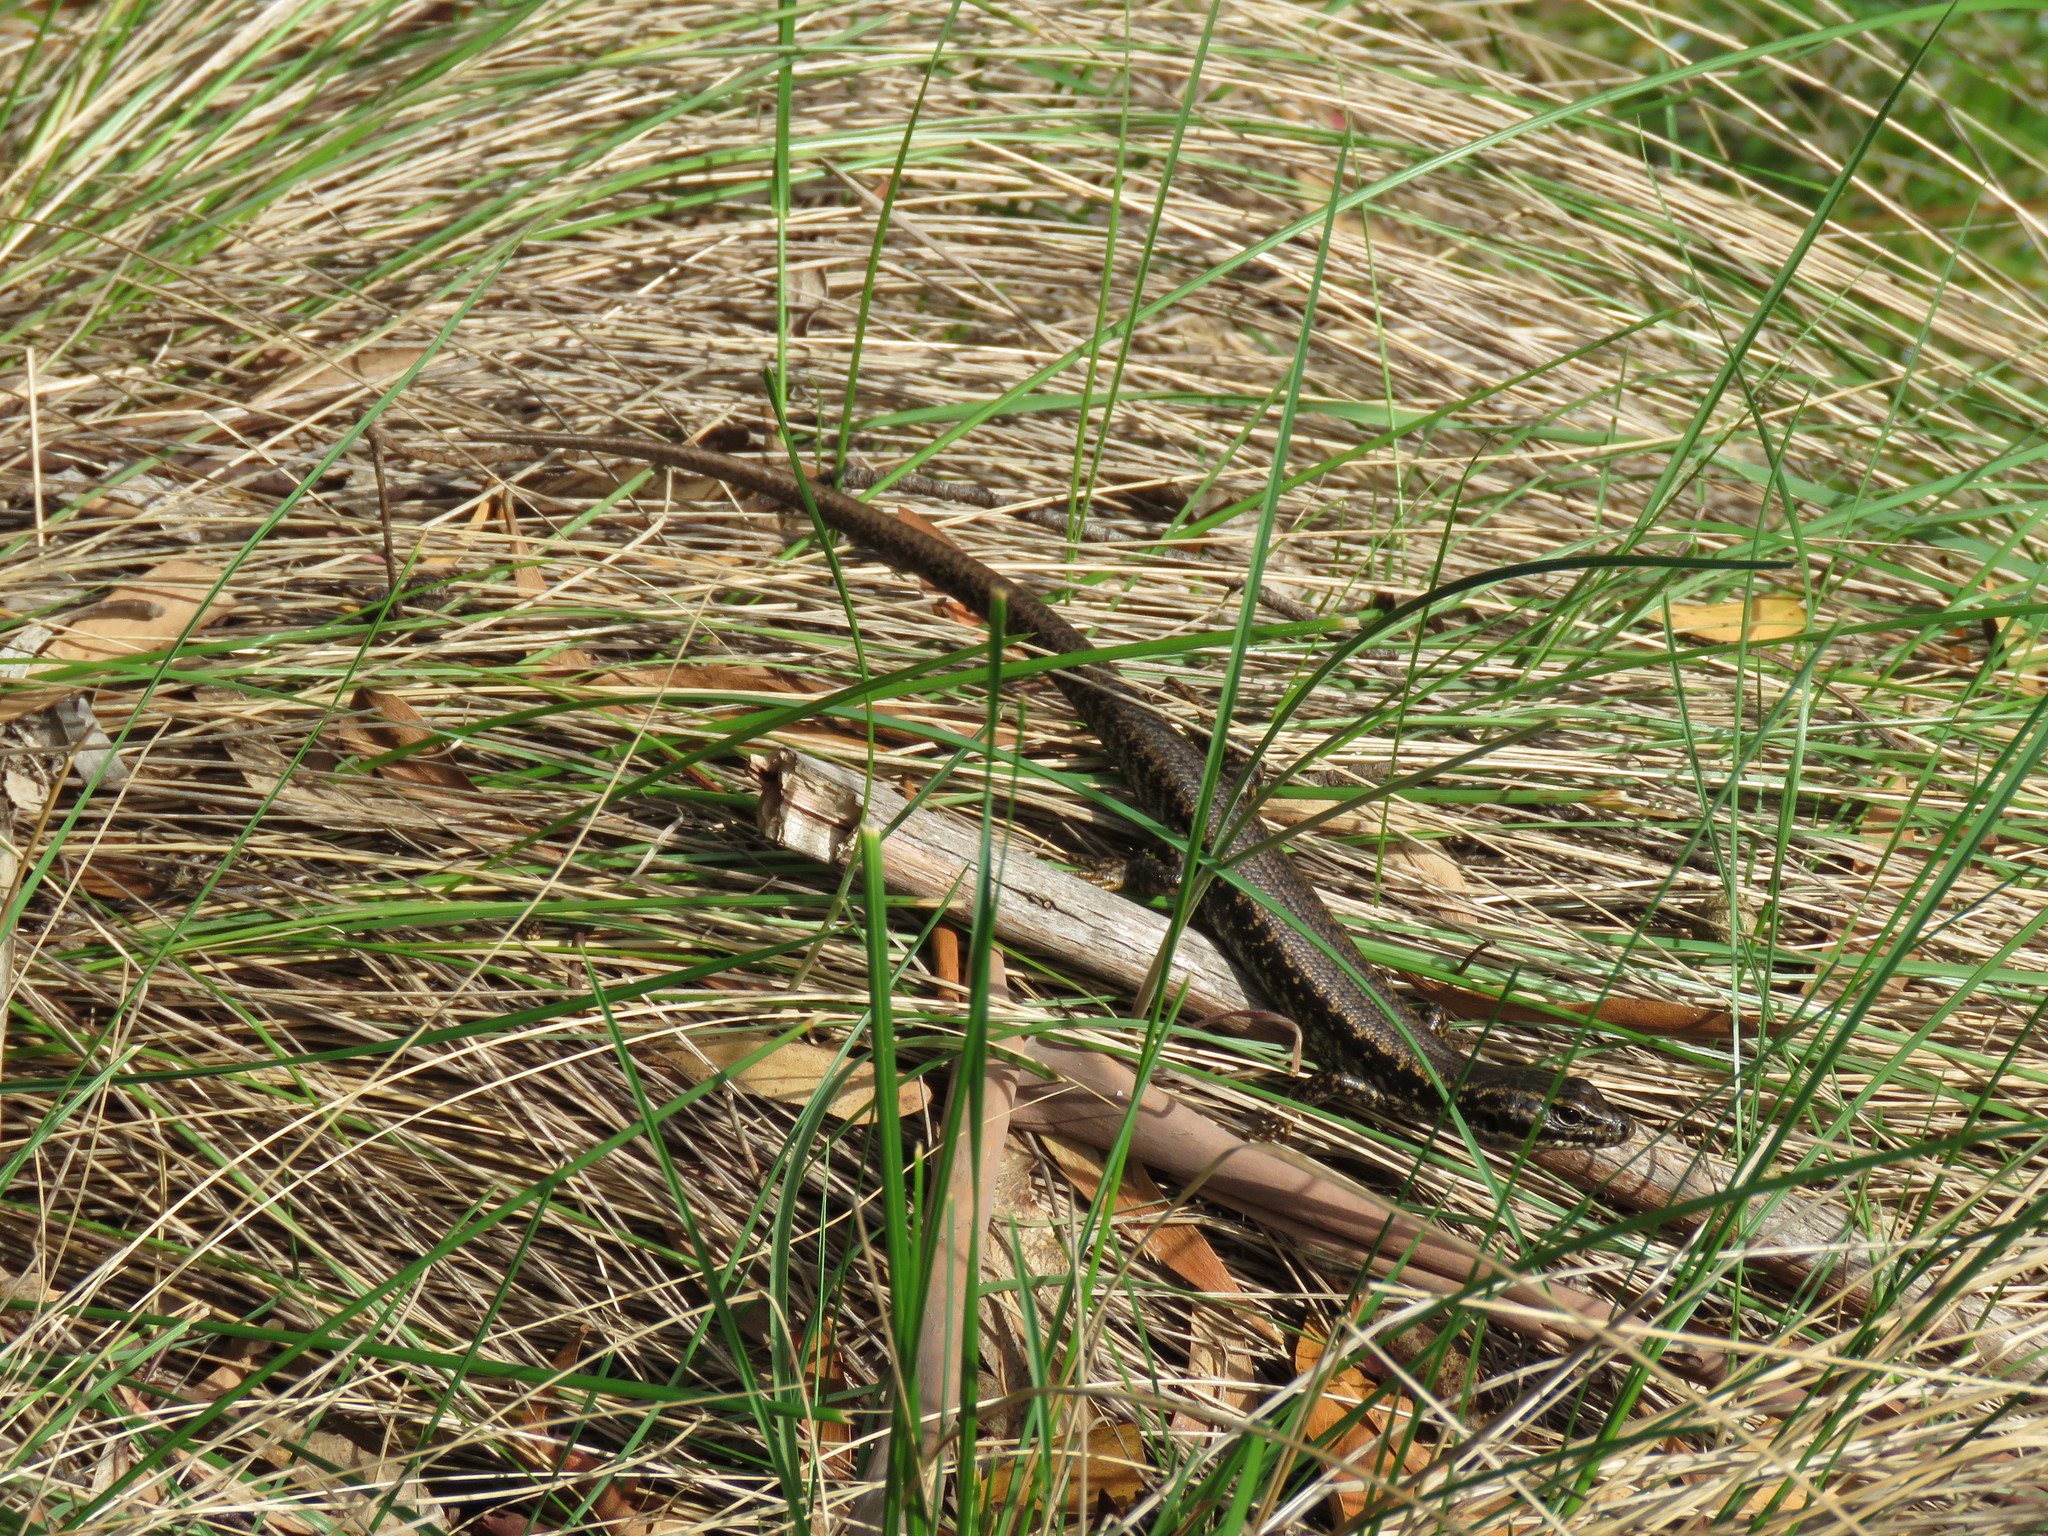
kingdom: Animalia
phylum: Chordata
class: Squamata
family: Scincidae
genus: Eulamprus
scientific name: Eulamprus heatwolei
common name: Warm-temperate water-skink
